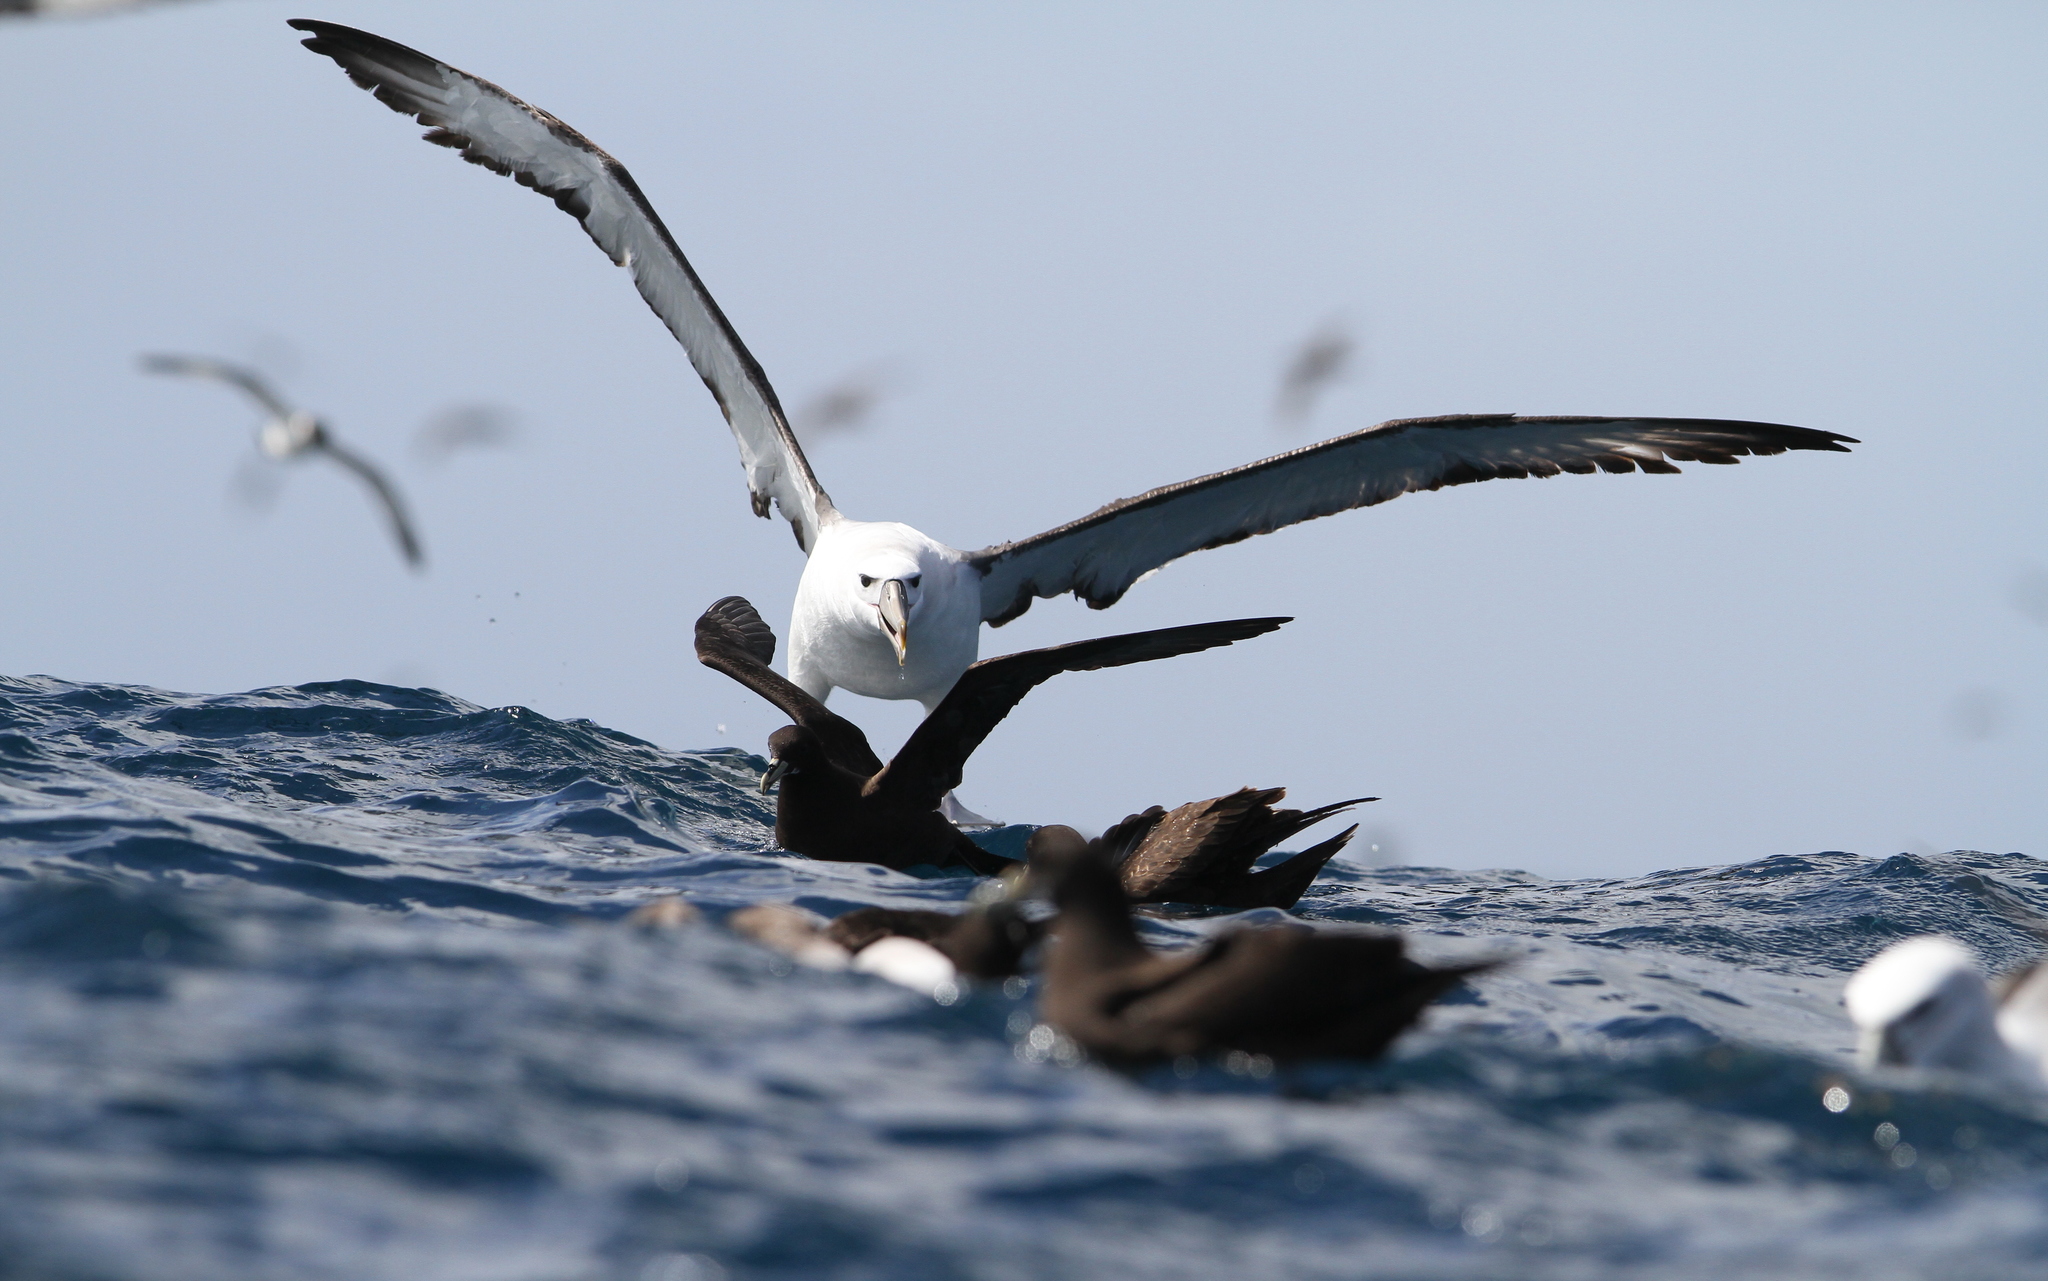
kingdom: Animalia
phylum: Chordata
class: Aves
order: Procellariiformes
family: Diomedeidae
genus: Thalassarche
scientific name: Thalassarche cauta
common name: Shy albatross
